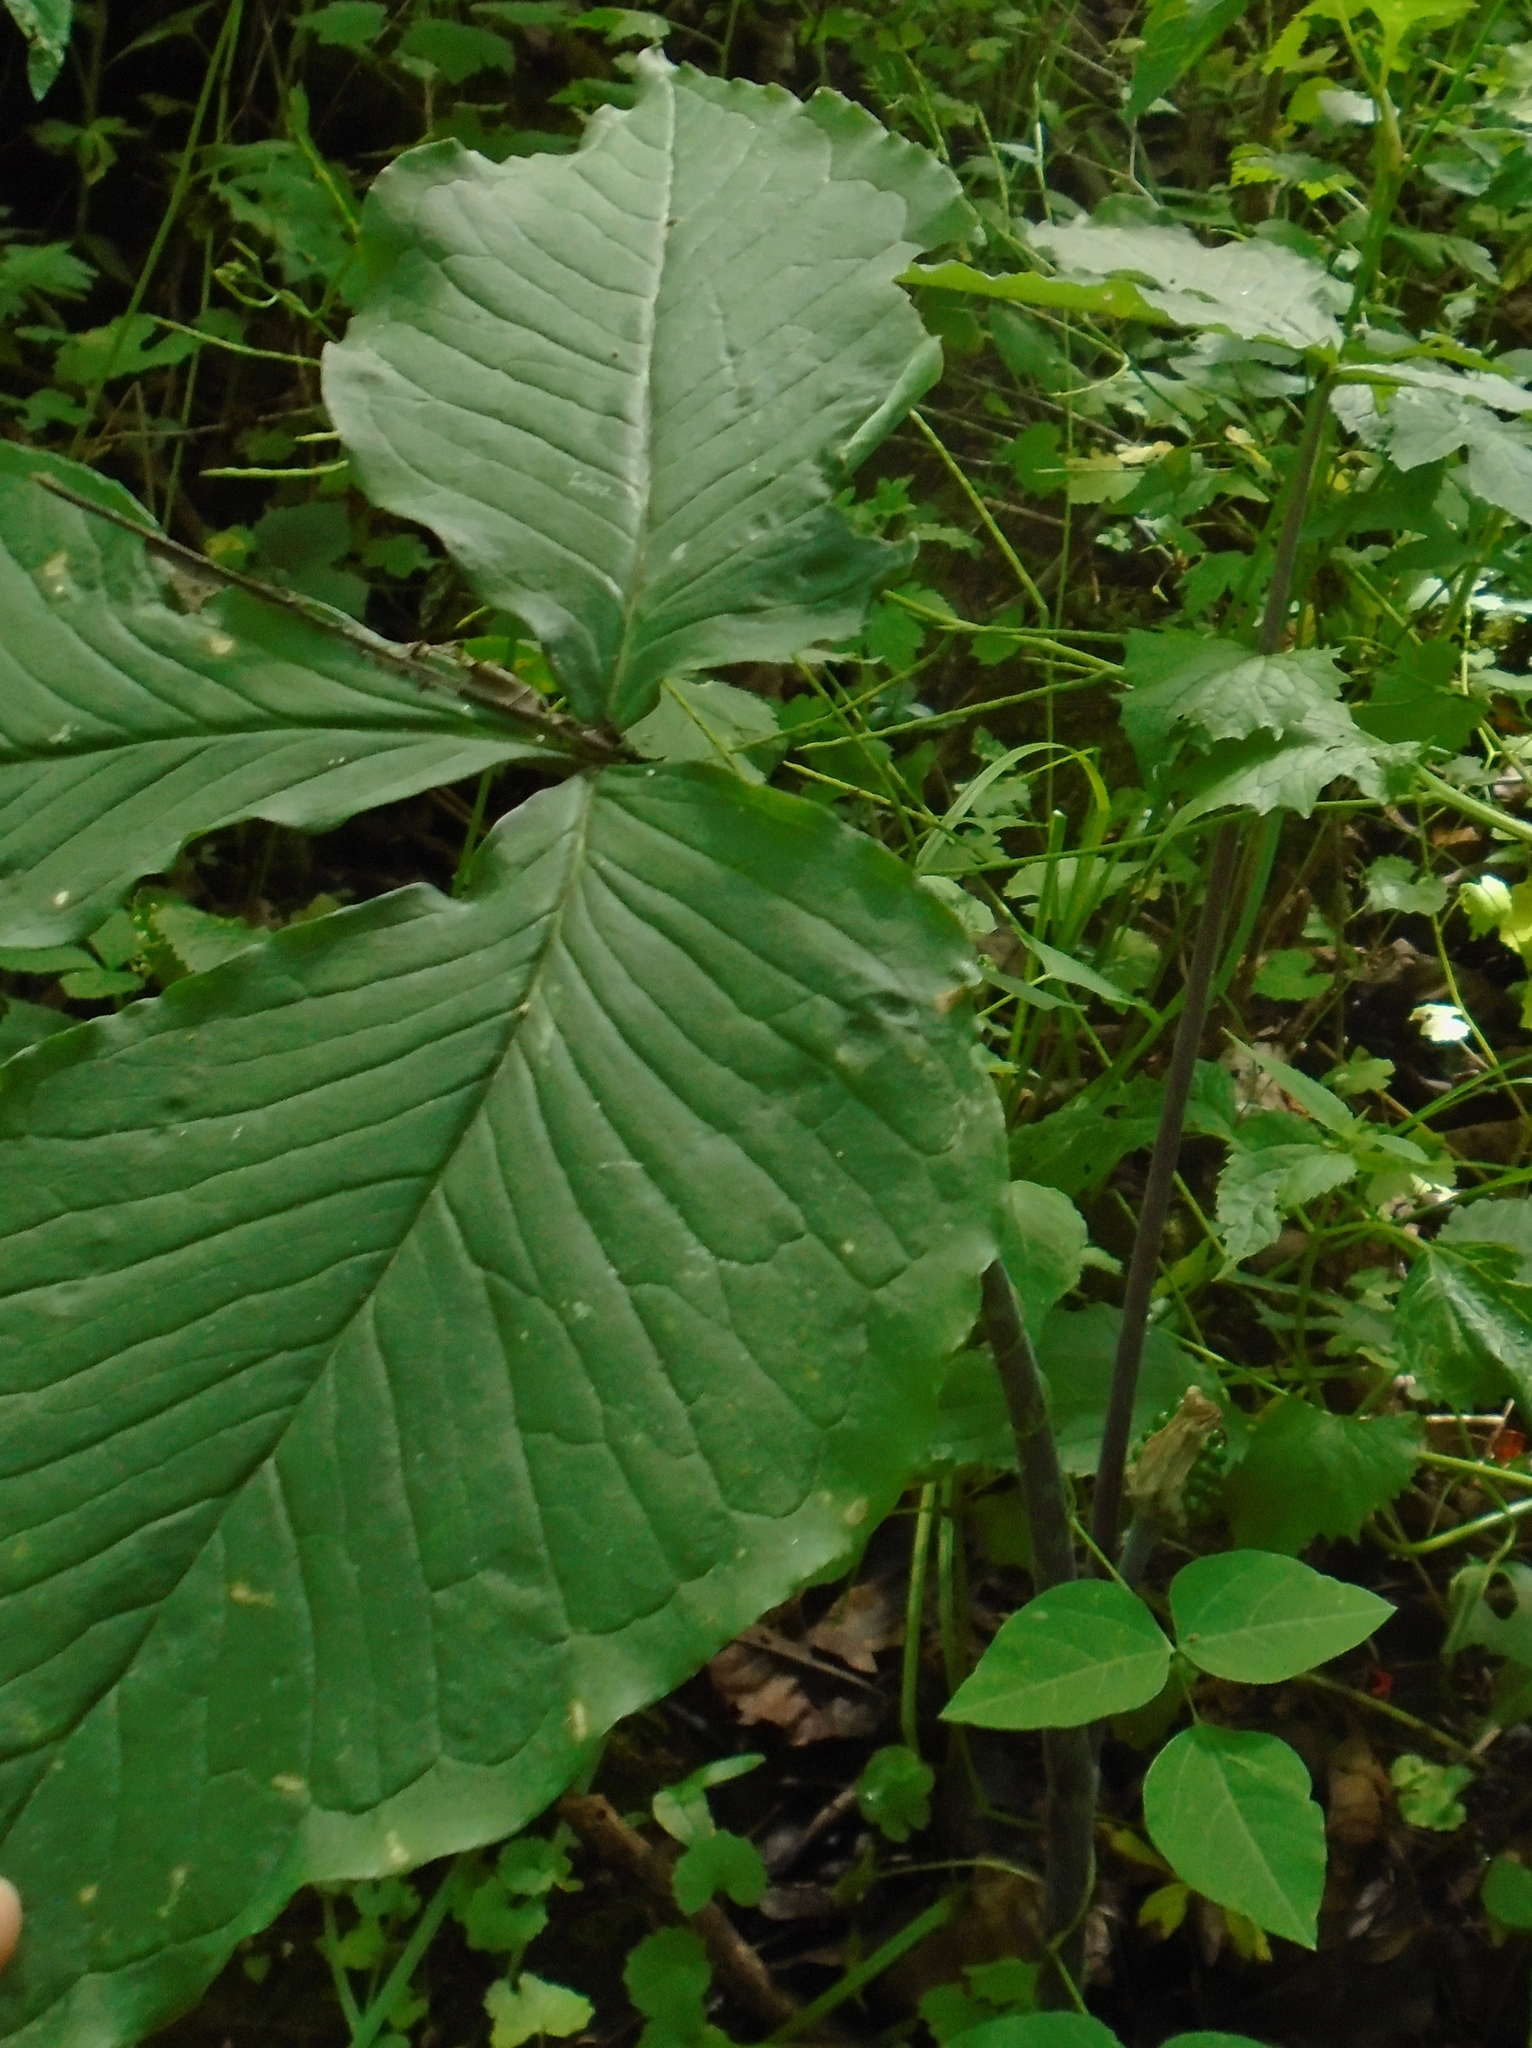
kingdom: Plantae
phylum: Tracheophyta
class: Liliopsida
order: Alismatales
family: Araceae
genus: Arisaema
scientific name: Arisaema triphyllum
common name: Jack-in-the-pulpit
